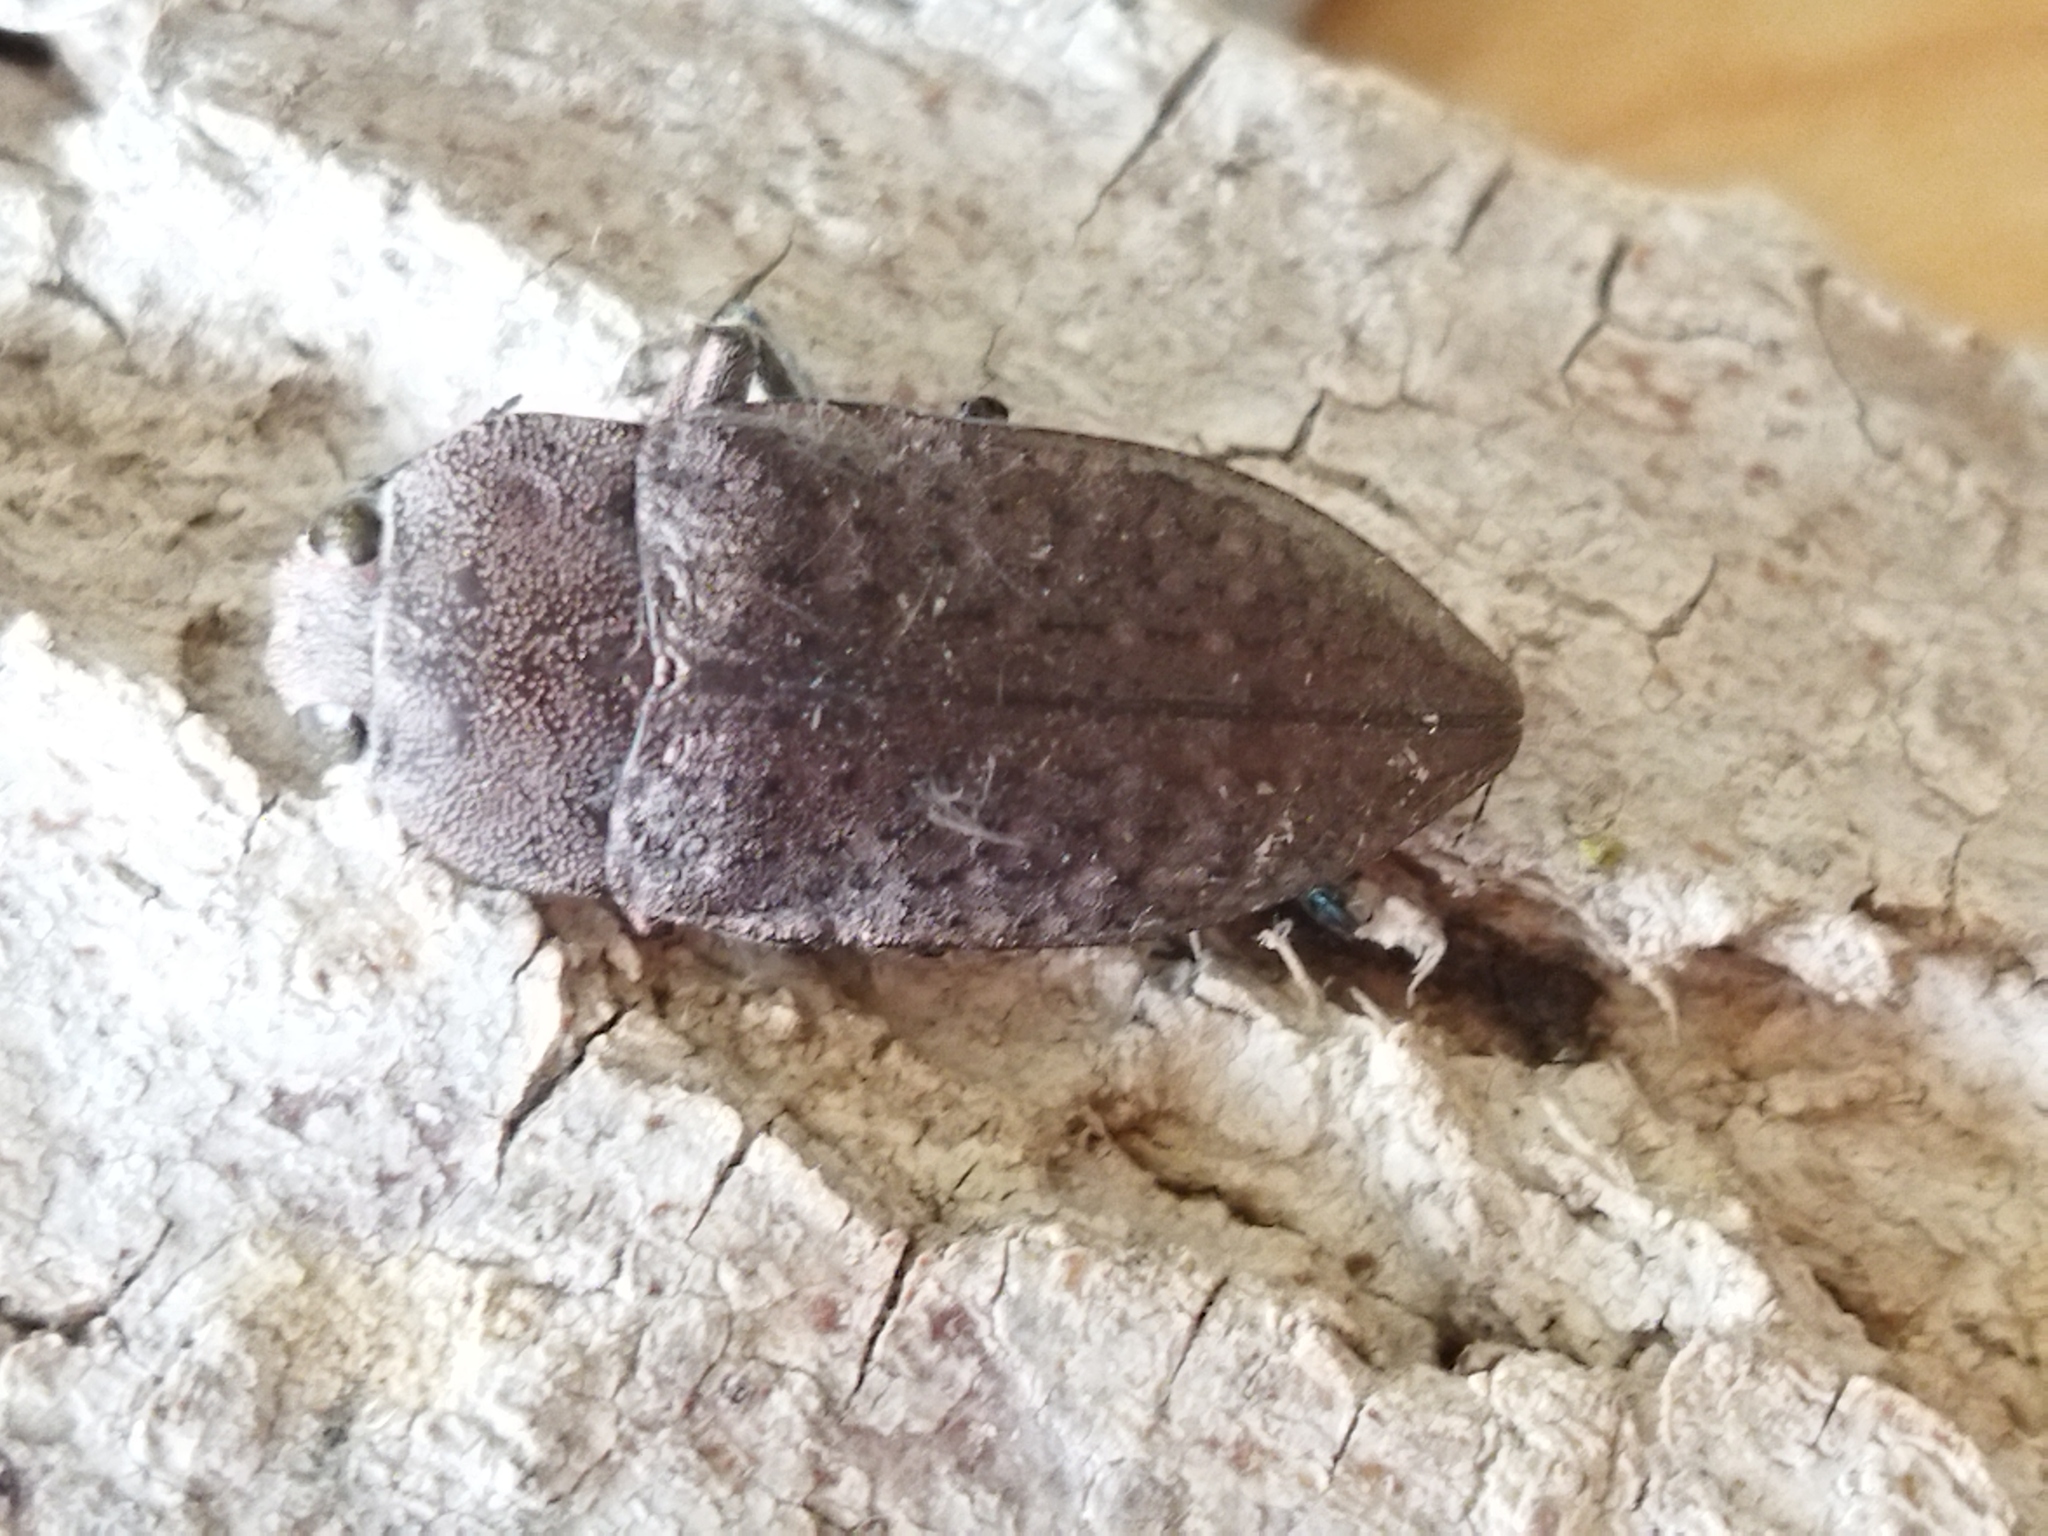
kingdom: Animalia
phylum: Arthropoda
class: Insecta
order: Coleoptera
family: Buprestidae
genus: Perotis
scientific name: Perotis lugubris
